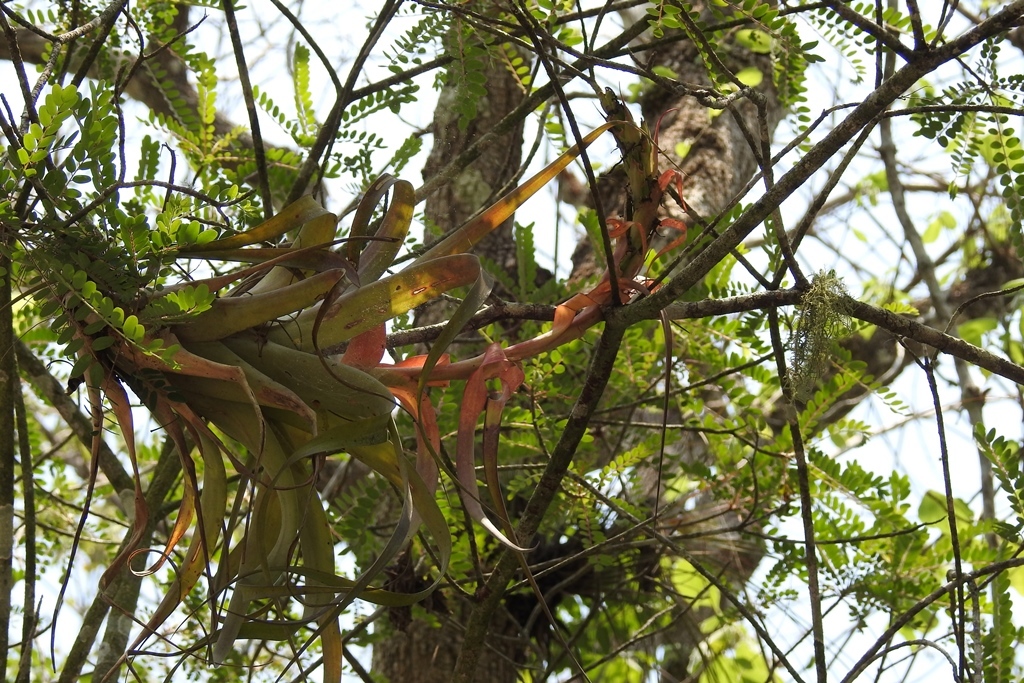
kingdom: Plantae
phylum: Tracheophyta
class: Liliopsida
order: Poales
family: Bromeliaceae
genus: Tillandsia
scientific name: Tillandsia belloensis
